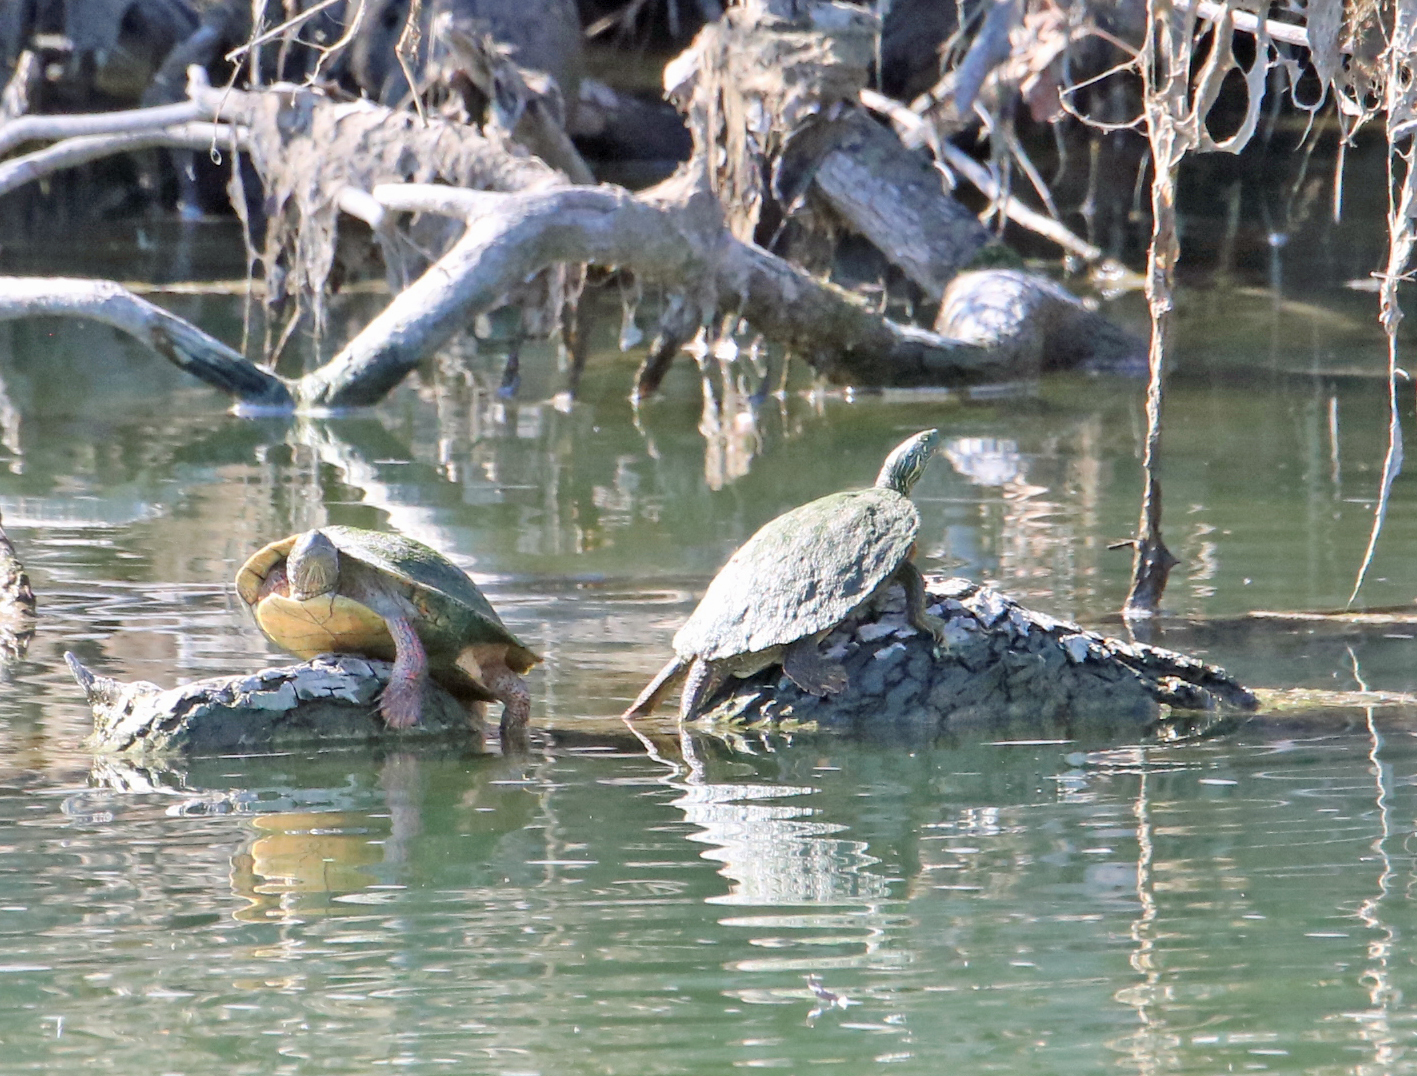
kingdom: Animalia
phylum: Chordata
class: Testudines
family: Emydidae
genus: Pseudemys
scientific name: Pseudemys texana
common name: Texas river cooter
